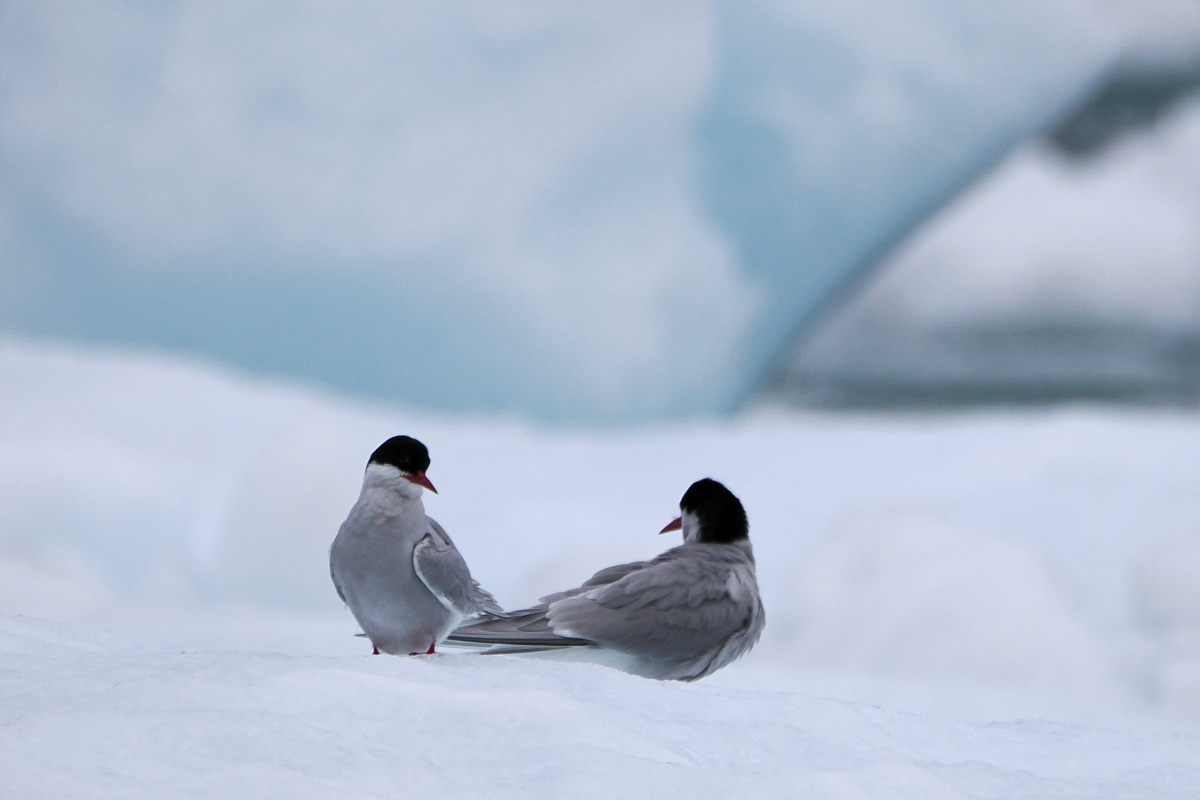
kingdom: Animalia
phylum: Chordata
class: Aves
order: Charadriiformes
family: Laridae
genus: Sterna
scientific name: Sterna paradisaea
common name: Arctic tern
